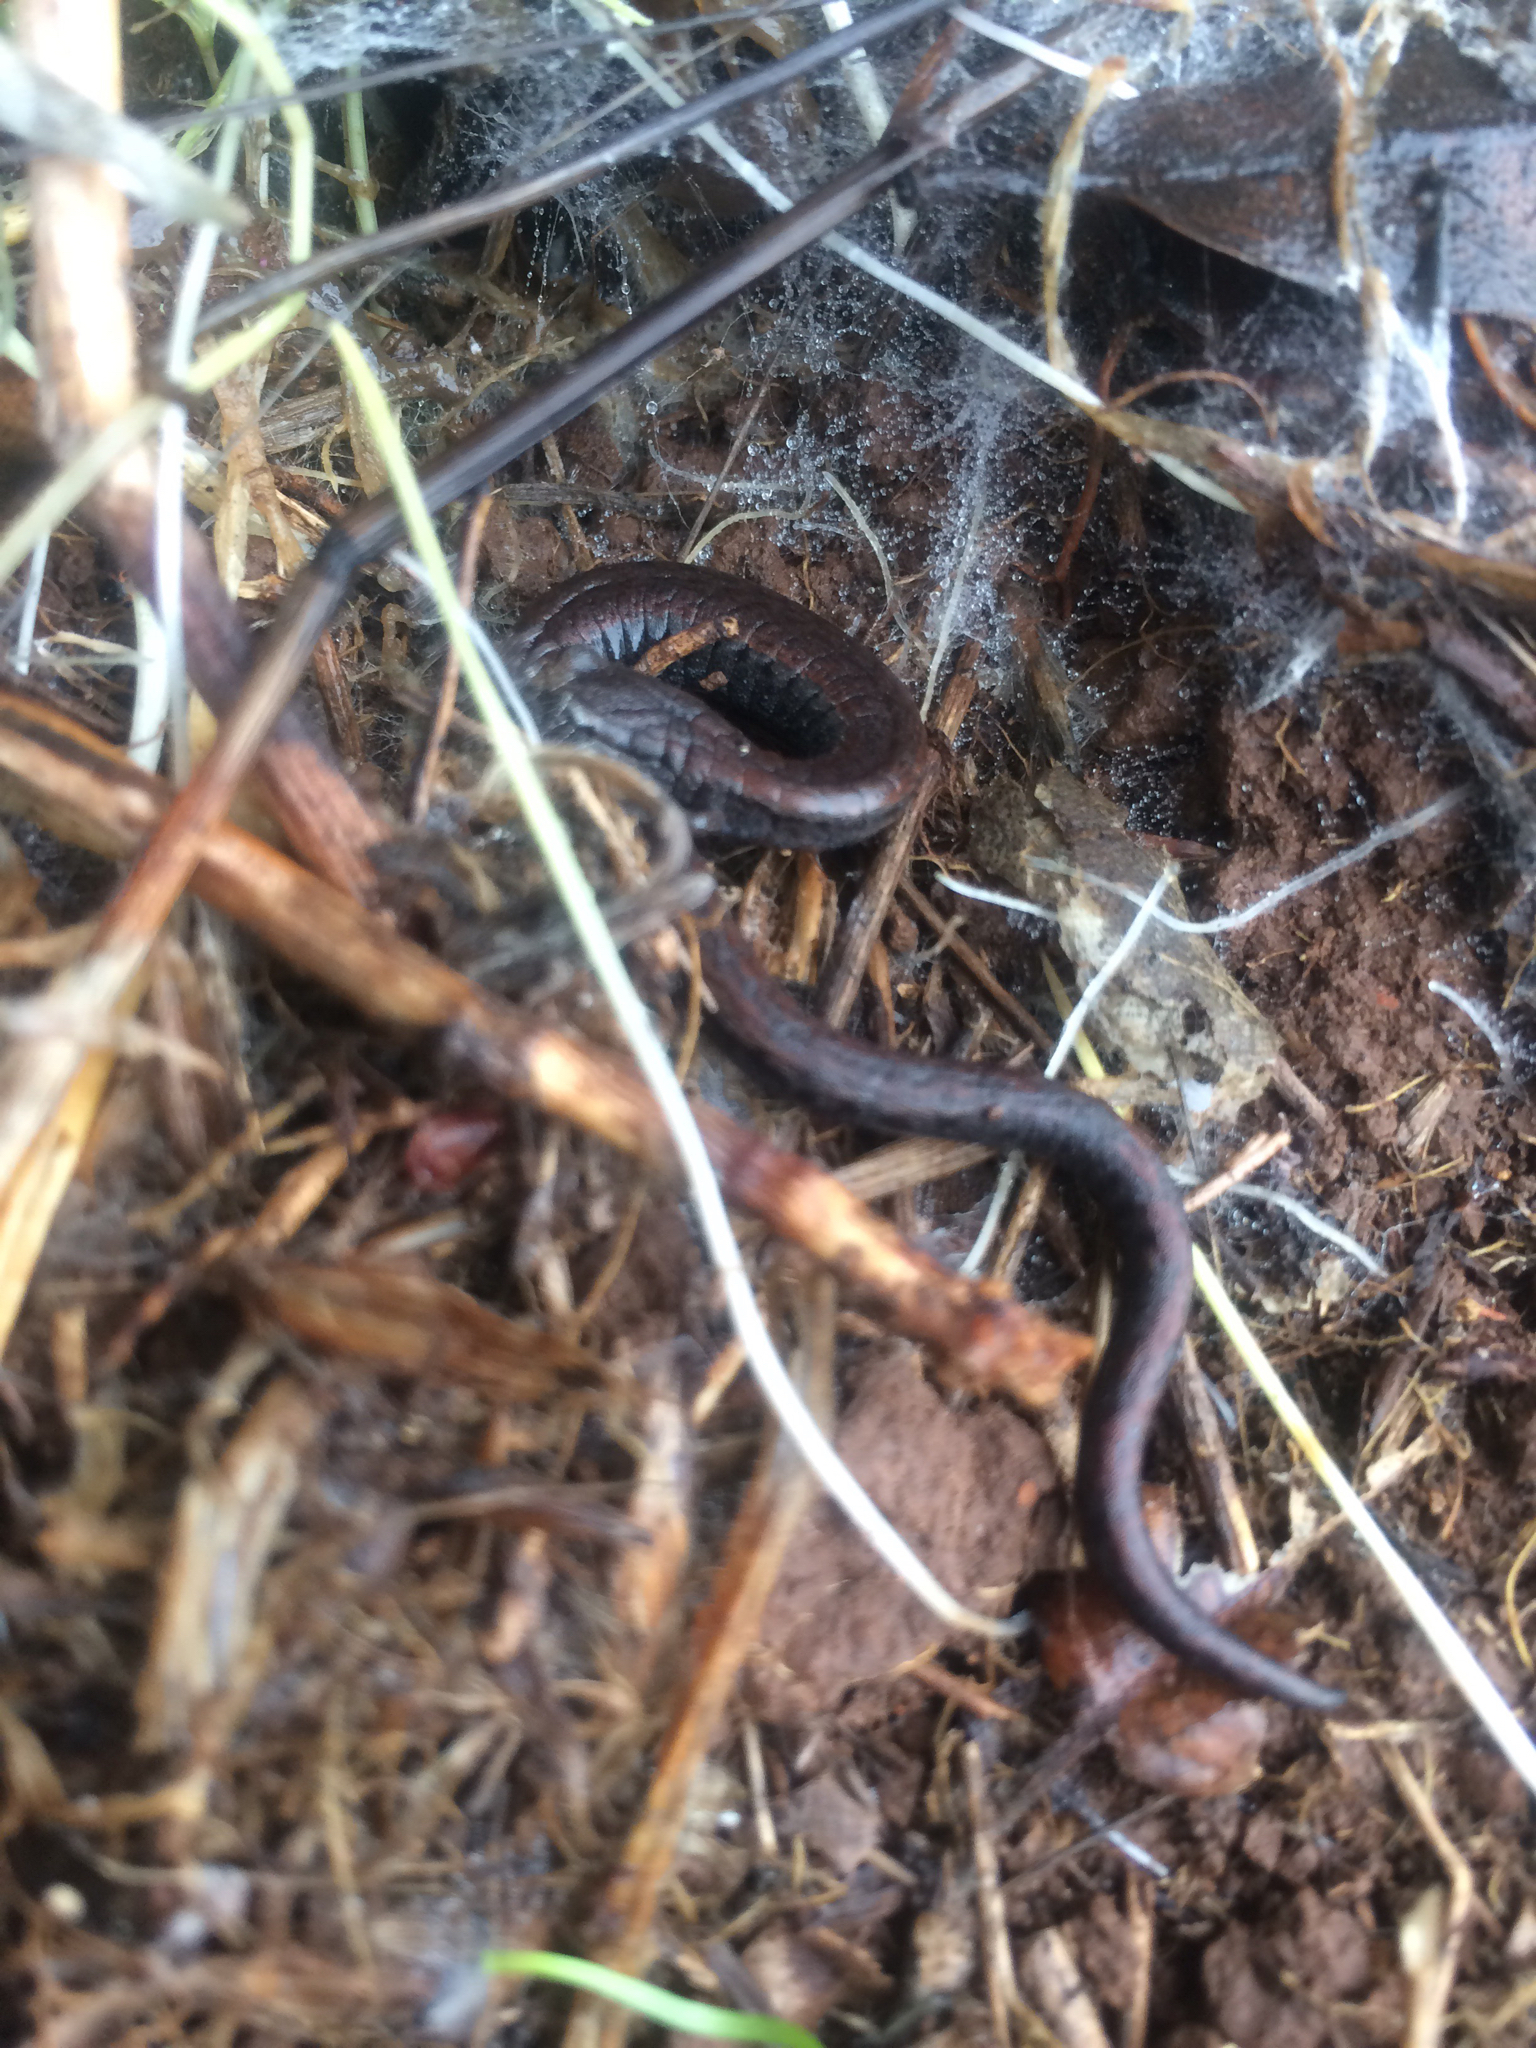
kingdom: Animalia
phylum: Chordata
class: Amphibia
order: Caudata
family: Plethodontidae
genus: Batrachoseps
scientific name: Batrachoseps attenuatus
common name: California slender salamander
